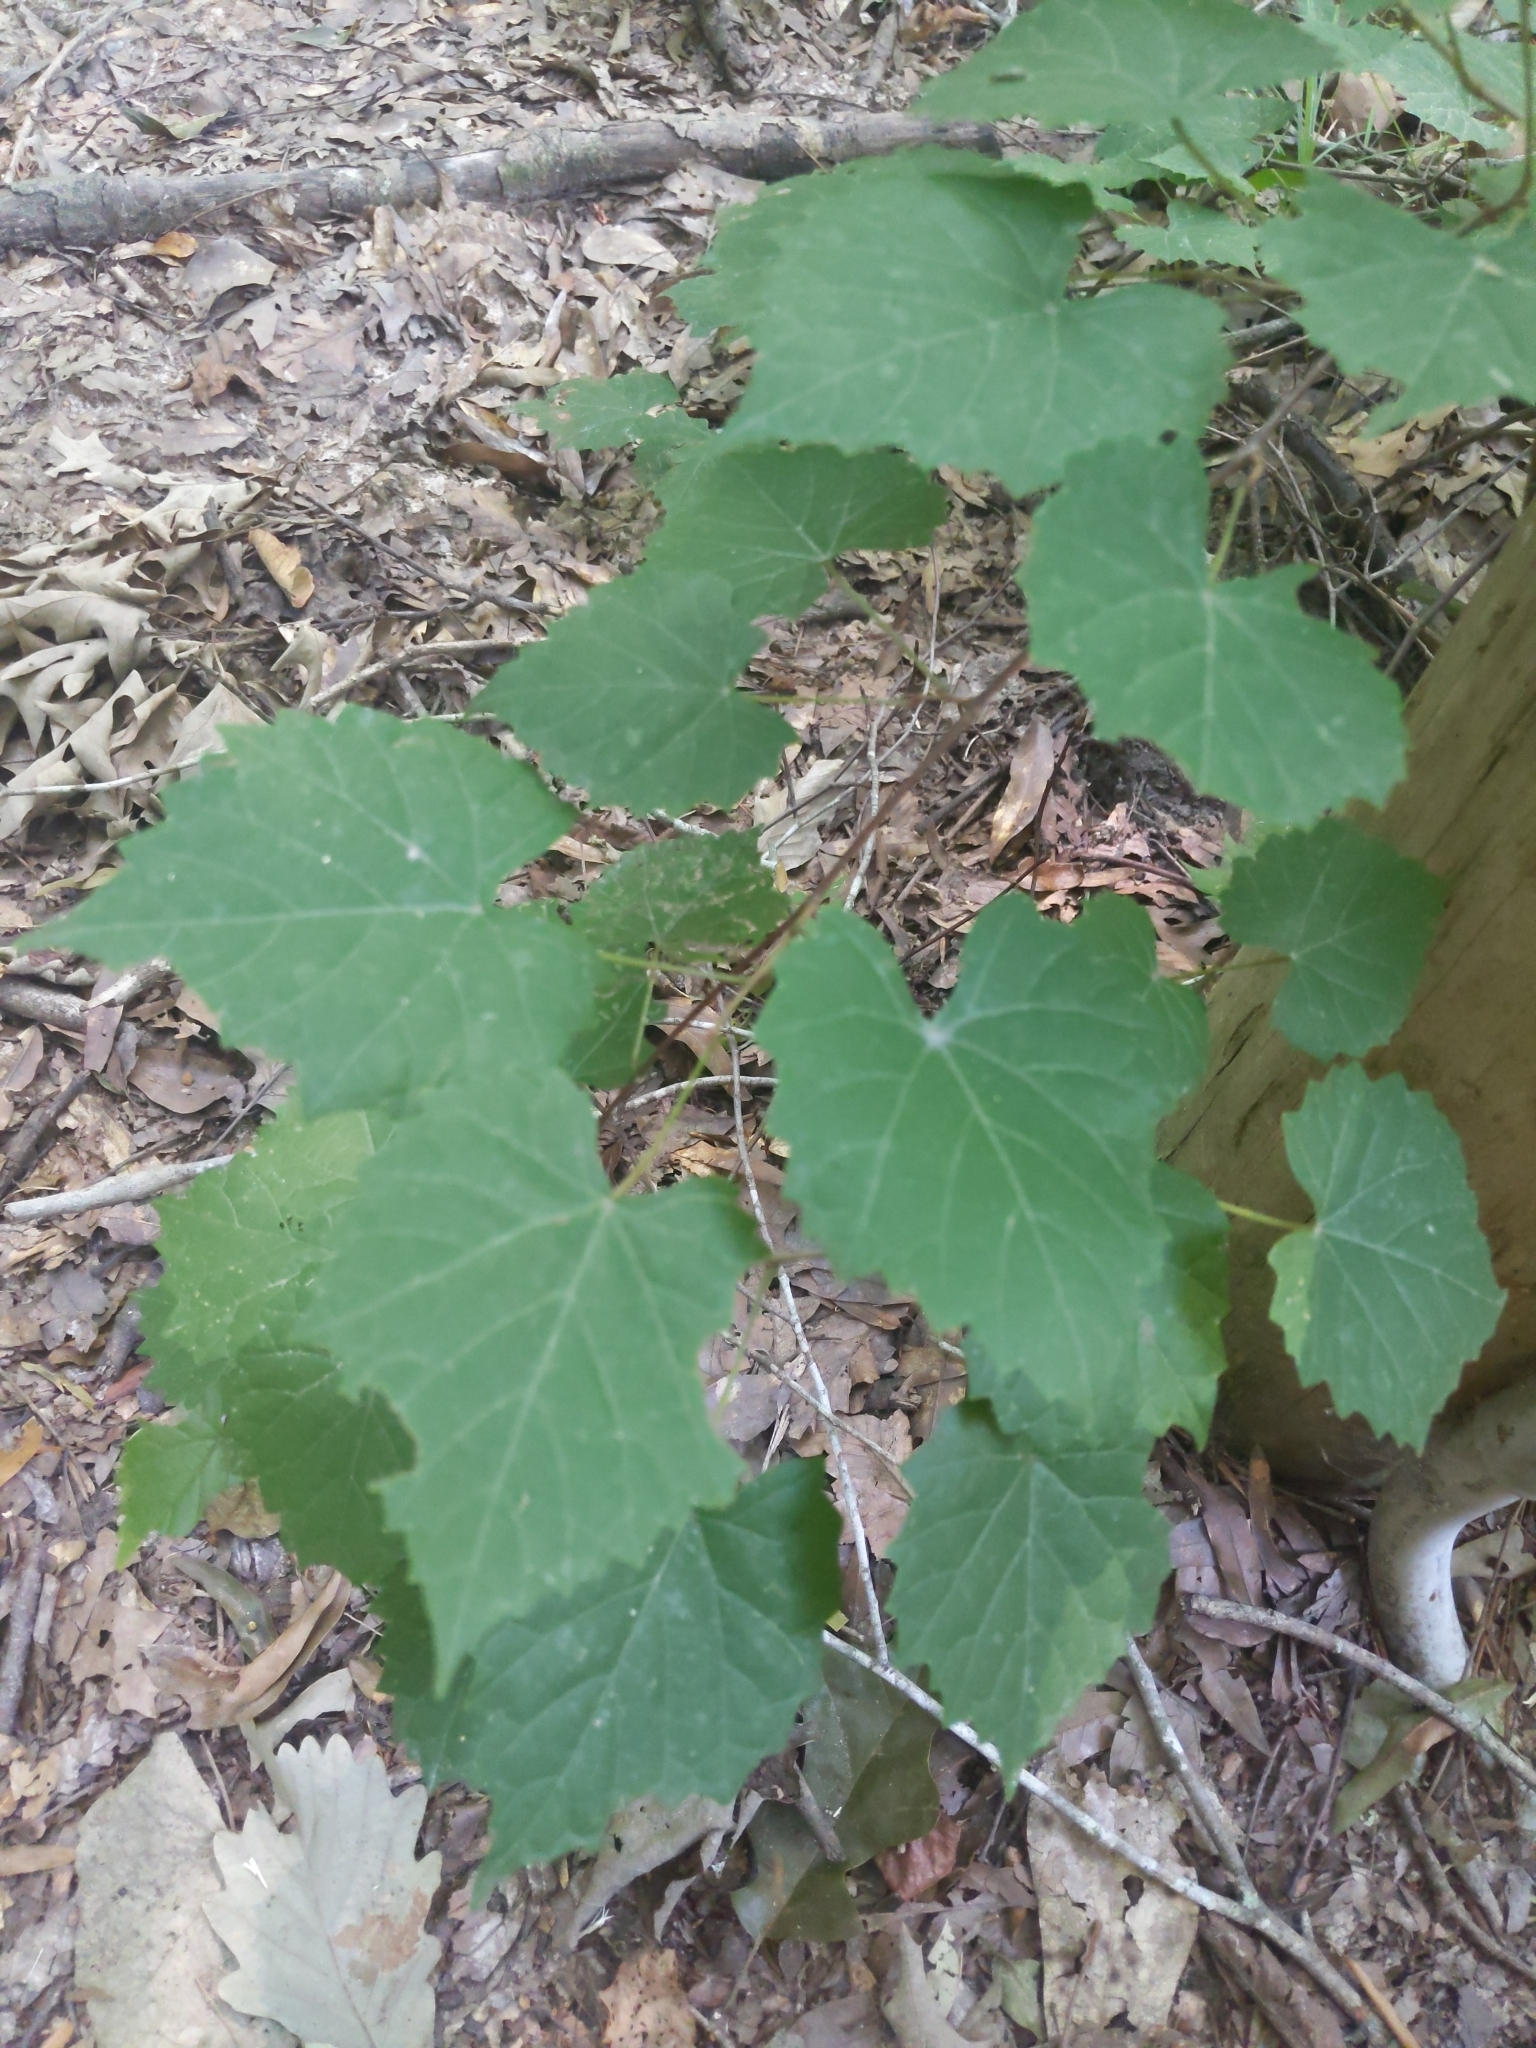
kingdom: Plantae
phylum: Tracheophyta
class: Magnoliopsida
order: Vitales
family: Vitaceae
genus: Vitis
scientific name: Vitis rotundifolia
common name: Muscadine grape
